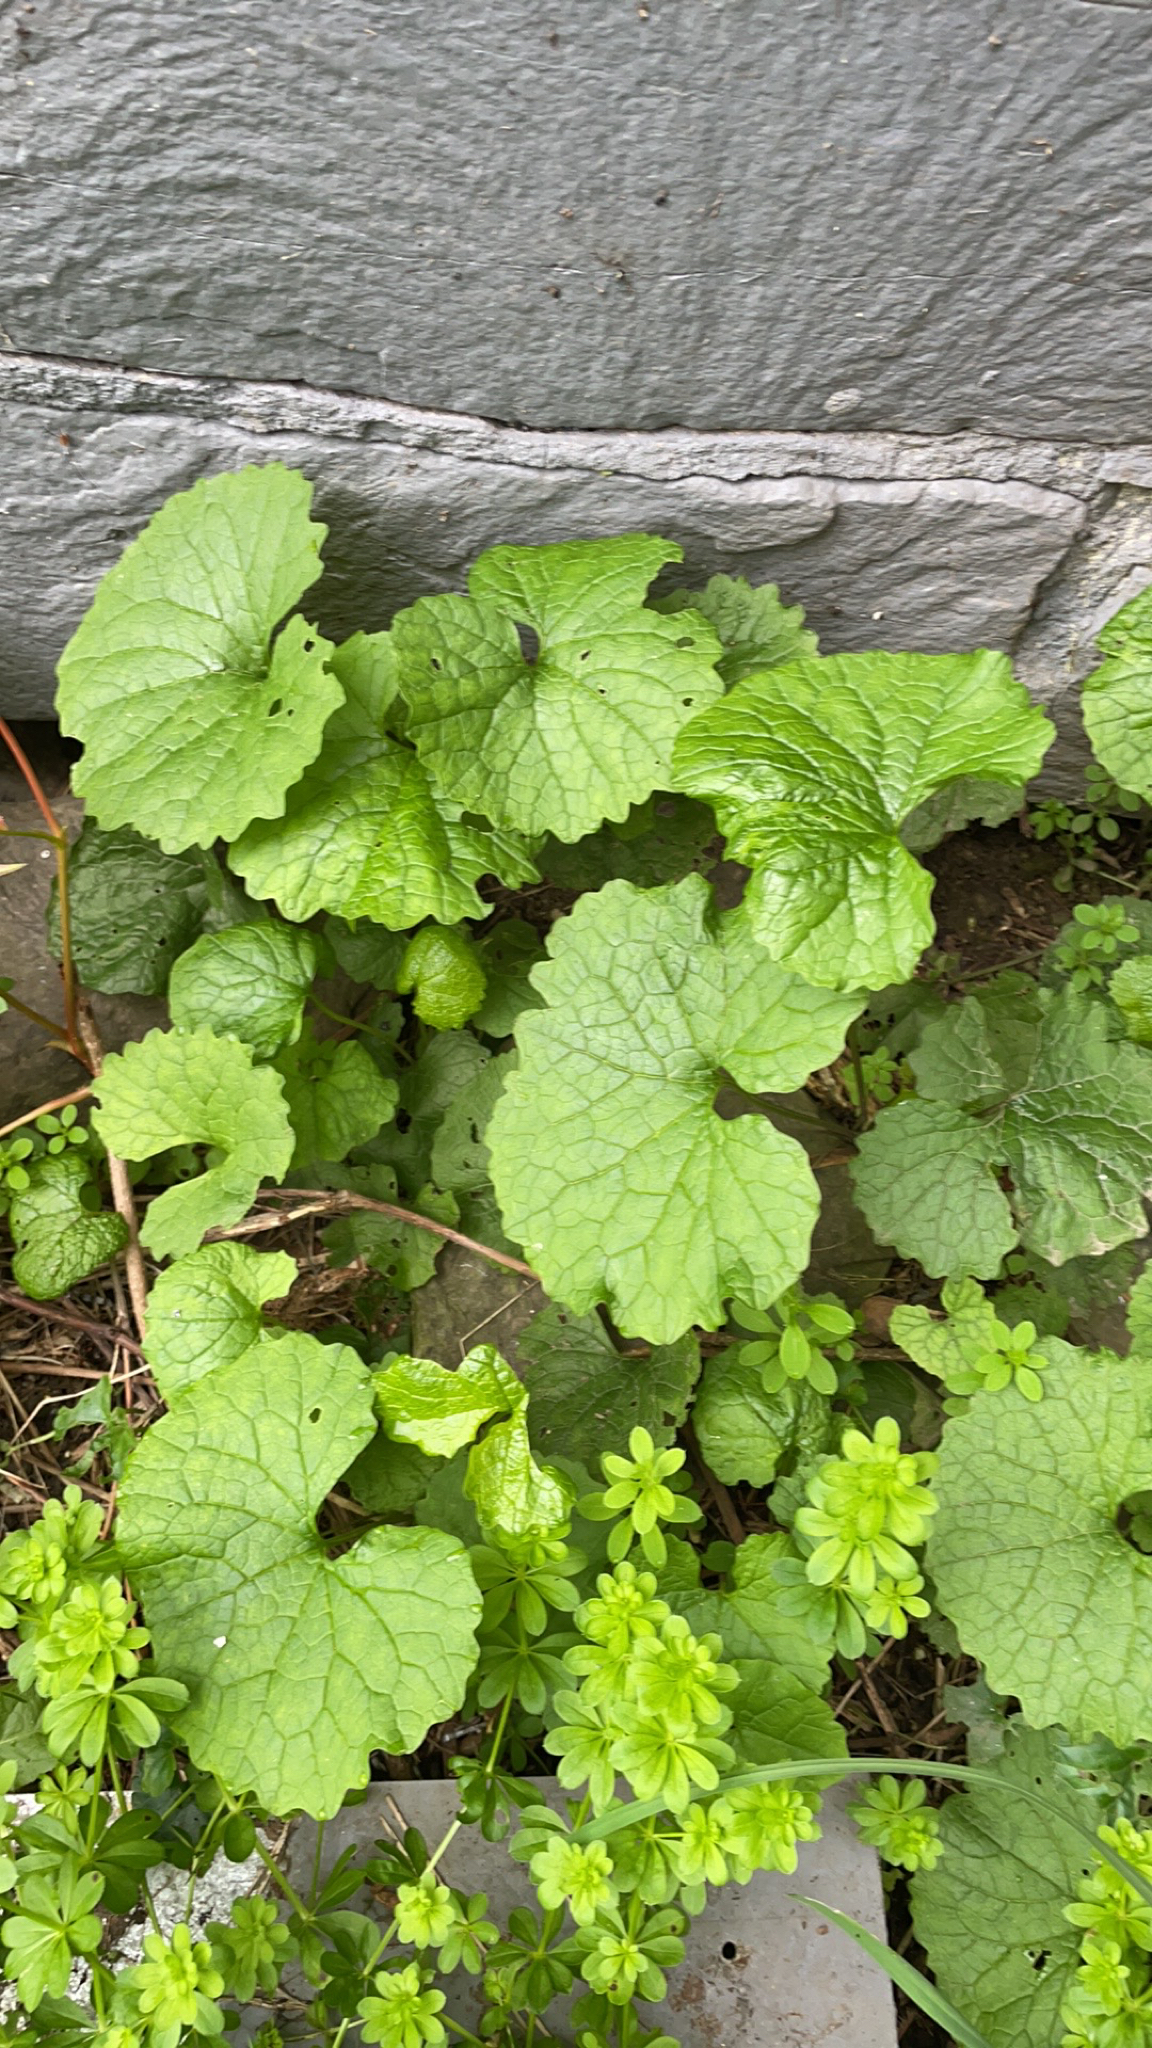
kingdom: Plantae
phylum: Tracheophyta
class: Magnoliopsida
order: Brassicales
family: Brassicaceae
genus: Alliaria
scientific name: Alliaria petiolata
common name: Garlic mustard
